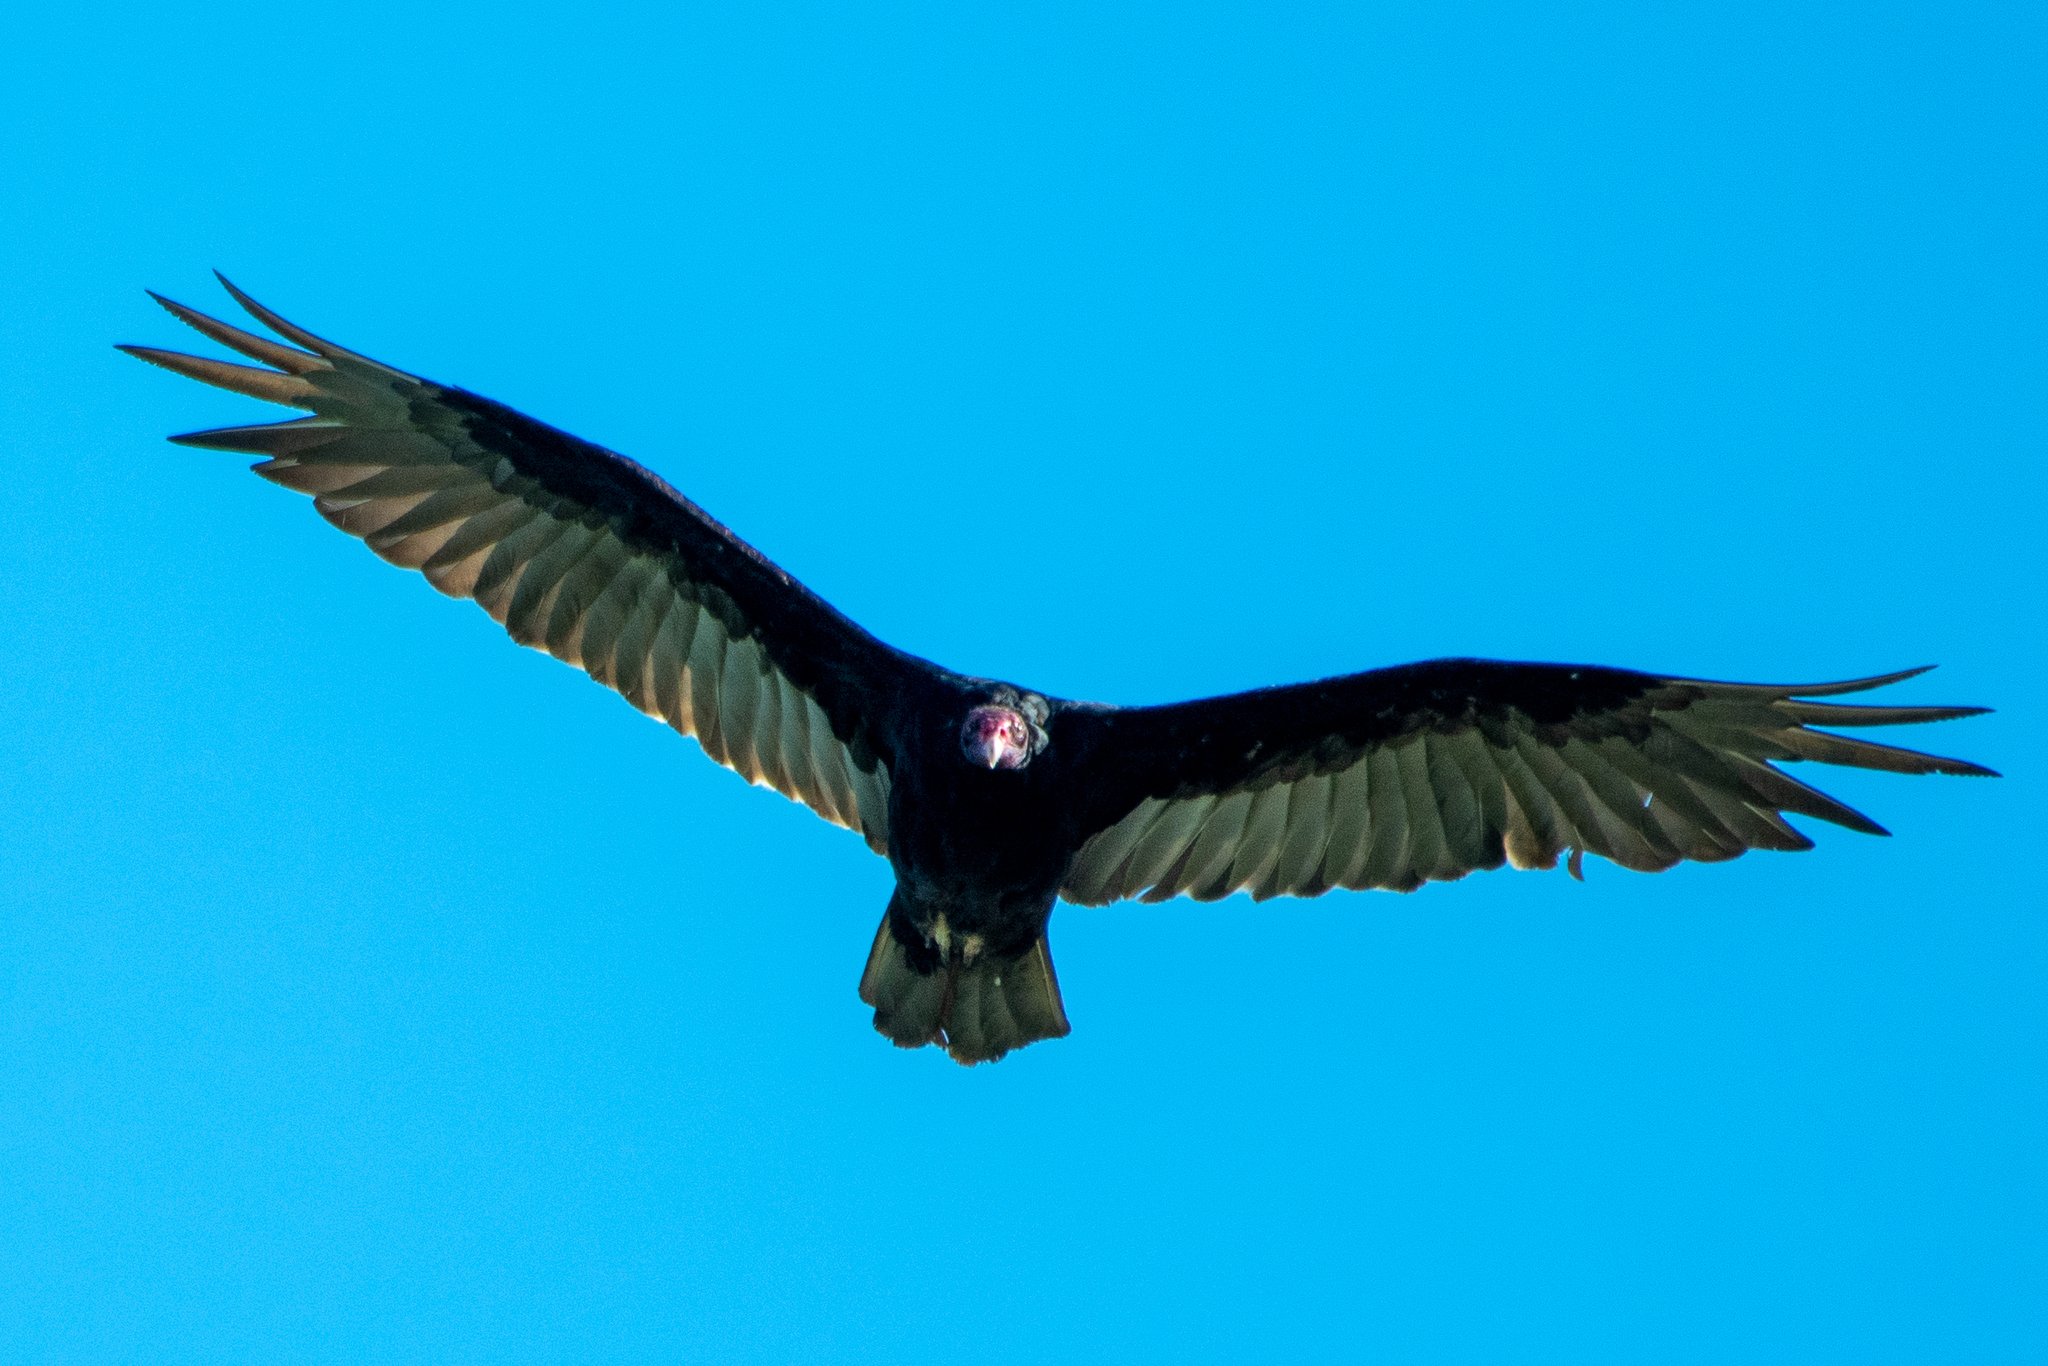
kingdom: Animalia
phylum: Chordata
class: Aves
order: Accipitriformes
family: Cathartidae
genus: Cathartes
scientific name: Cathartes aura
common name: Turkey vulture
